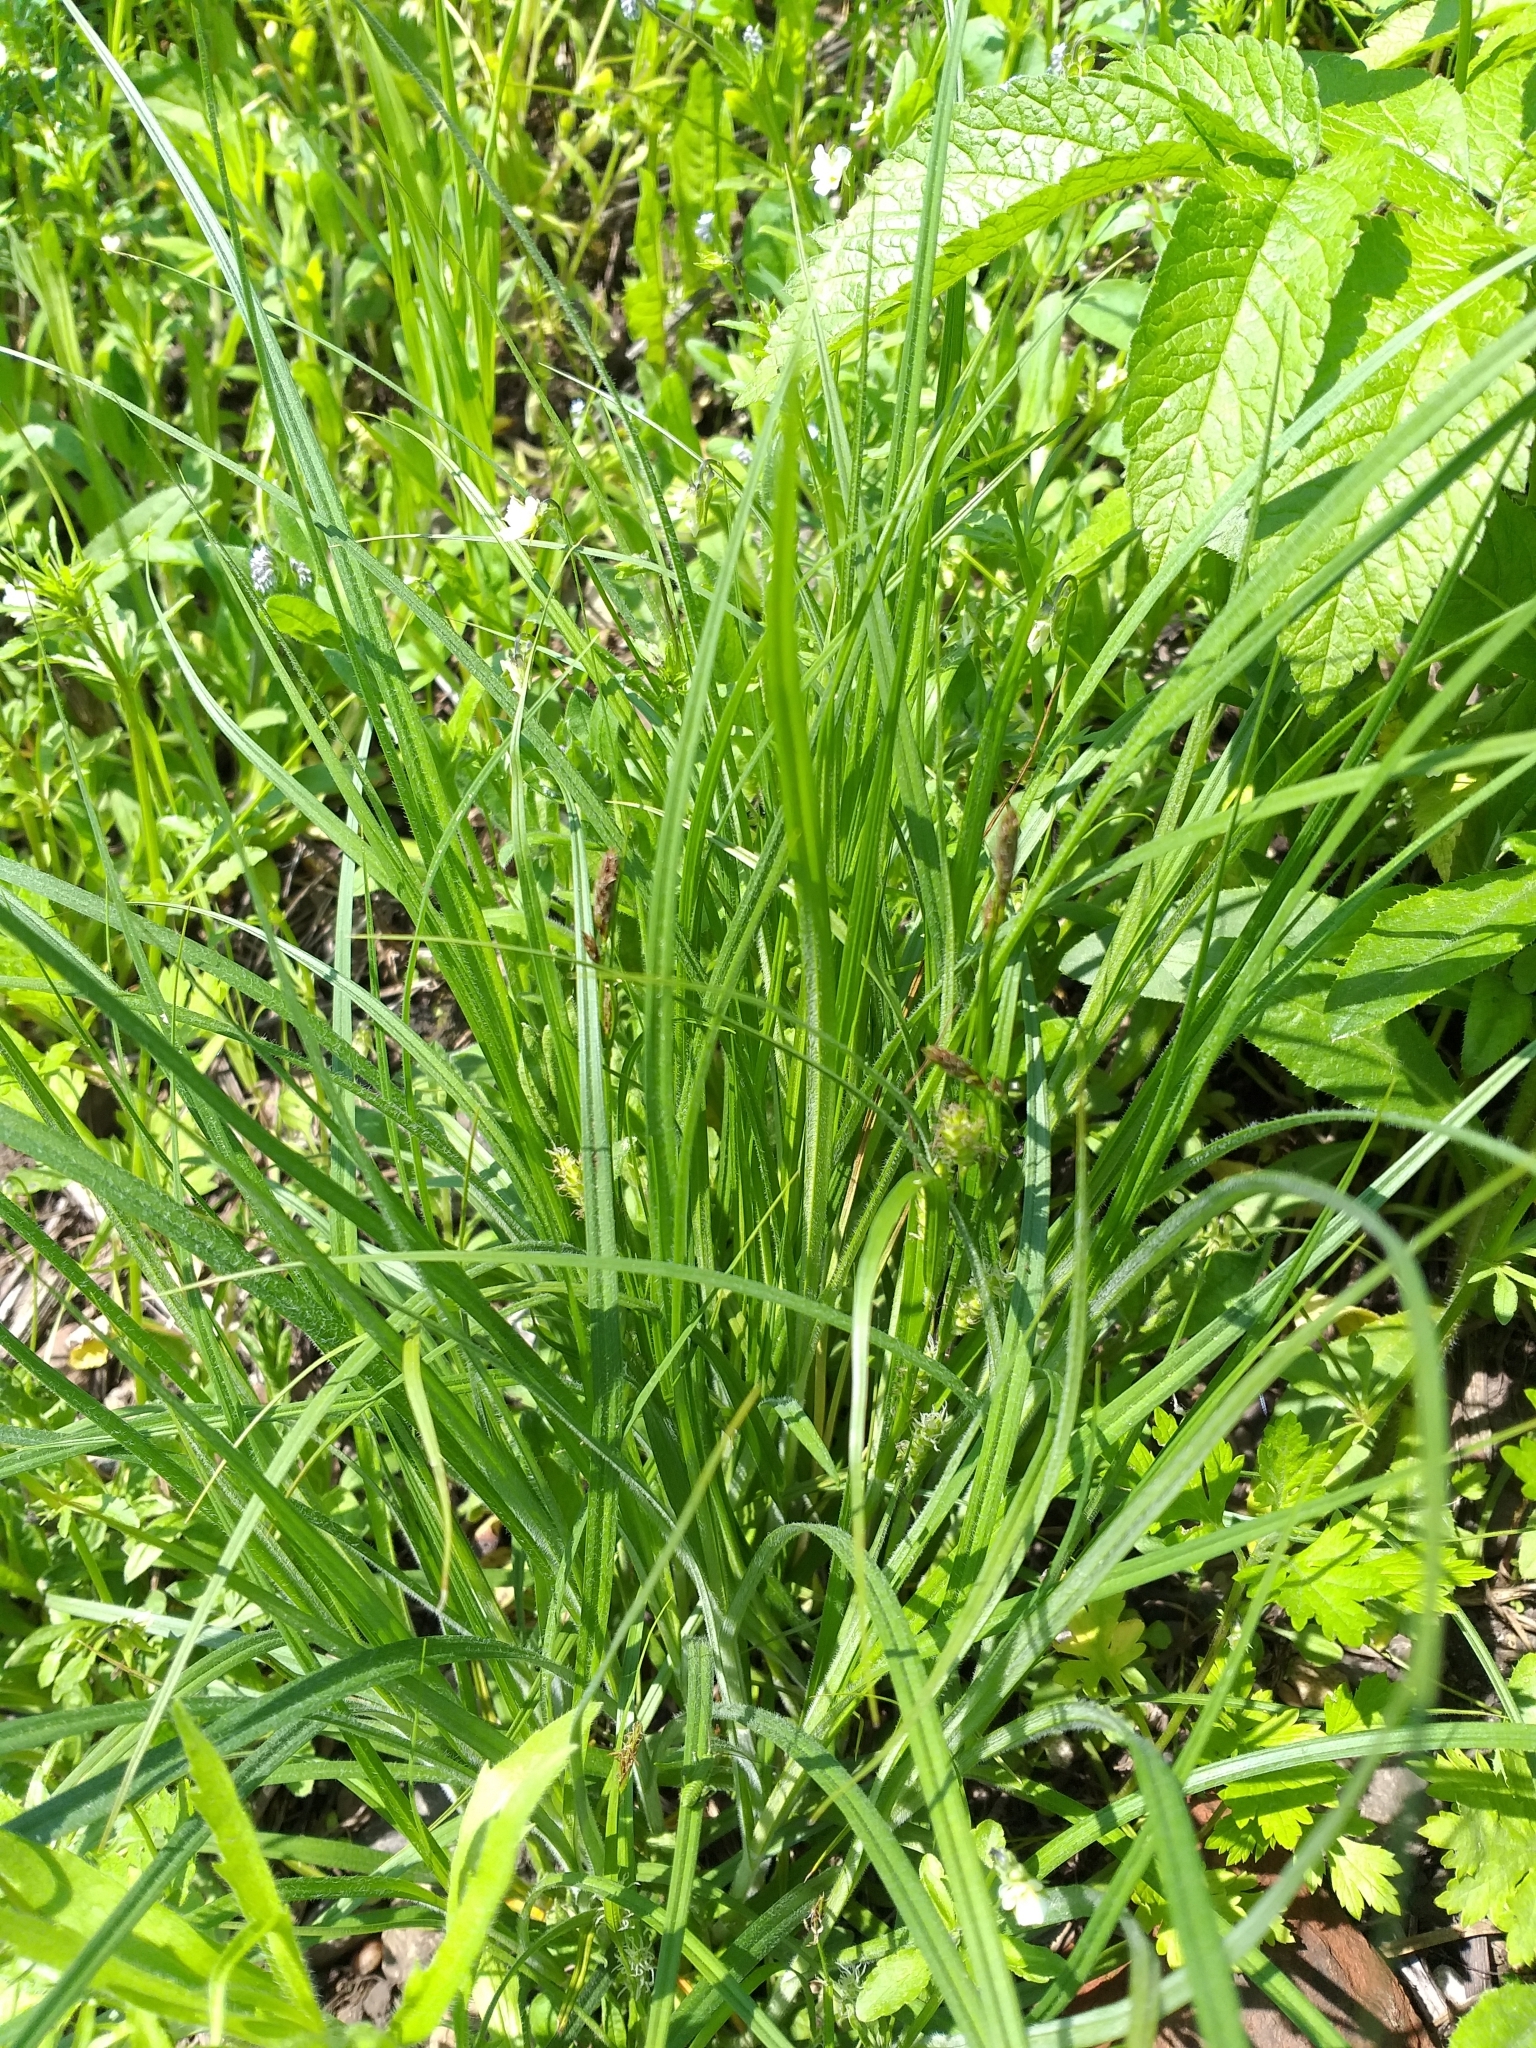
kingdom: Plantae
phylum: Tracheophyta
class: Liliopsida
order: Poales
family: Cyperaceae
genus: Carex
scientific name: Carex hirta
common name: Hairy sedge
